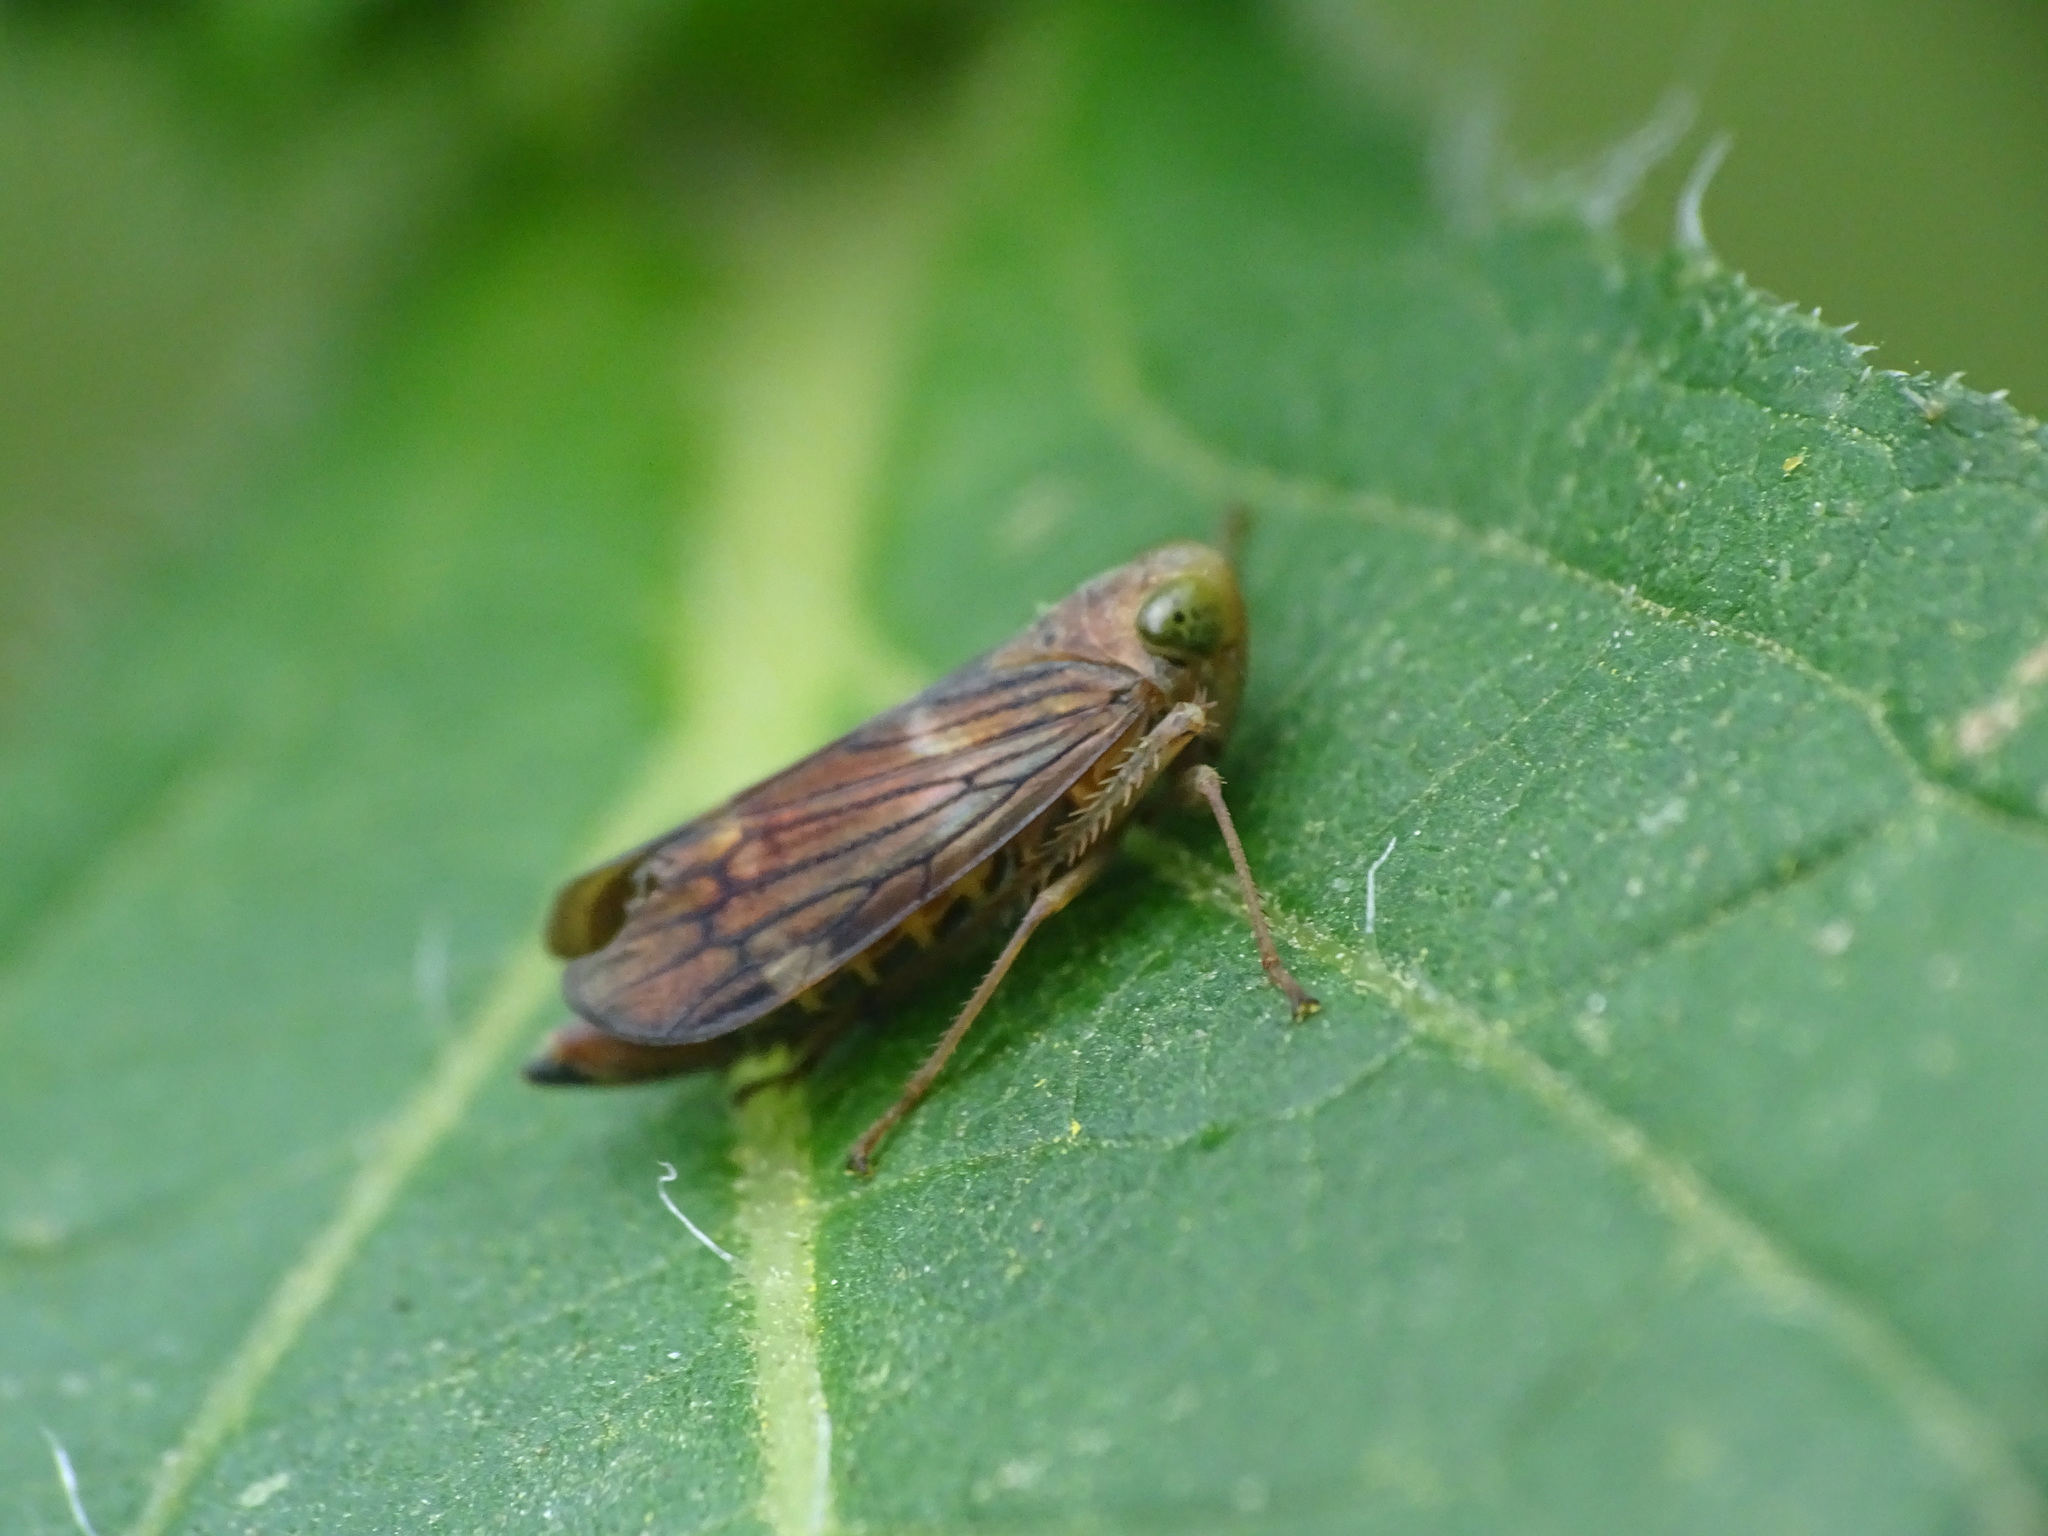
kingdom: Animalia
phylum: Arthropoda
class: Insecta
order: Hemiptera
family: Cicadellidae
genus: Jikradia
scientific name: Jikradia olitoria
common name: Coppery leafhopper
